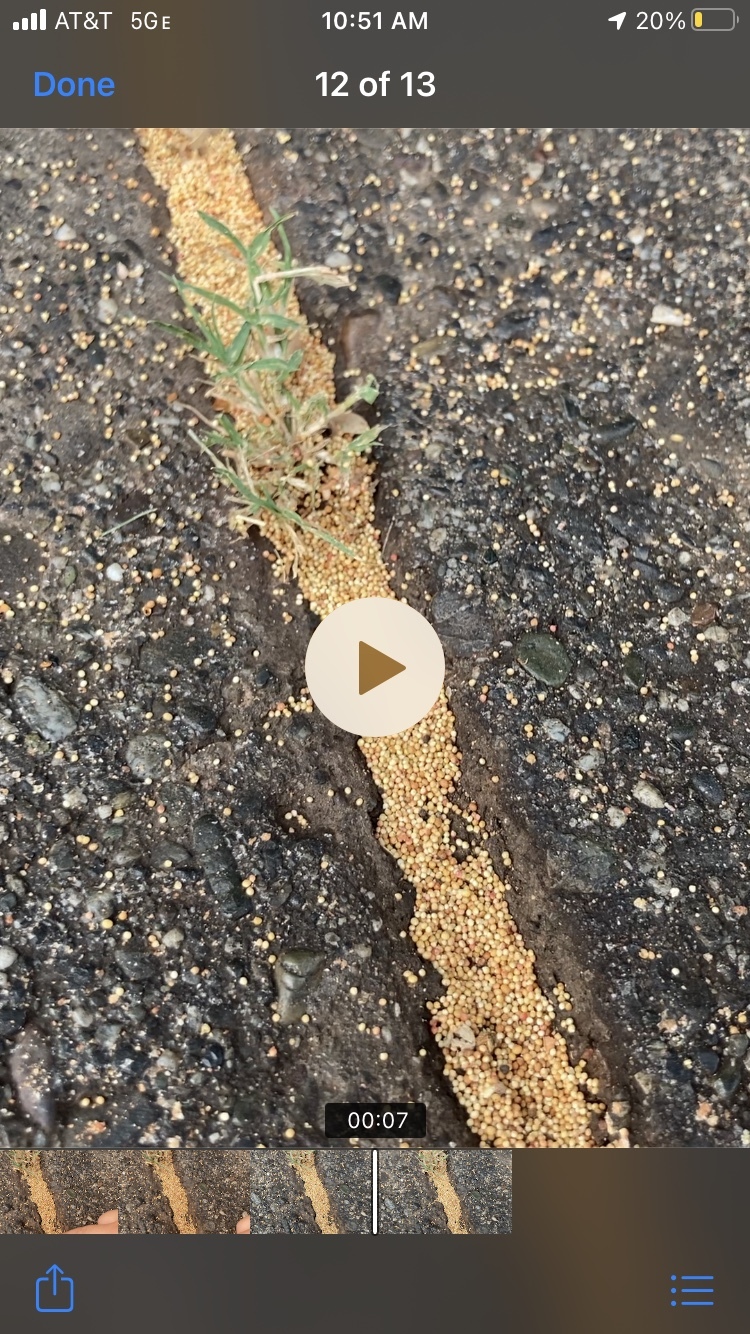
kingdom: Animalia
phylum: Arthropoda
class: Insecta
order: Hymenoptera
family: Cynipidae
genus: Neuroterus
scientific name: Neuroterus saltarius
